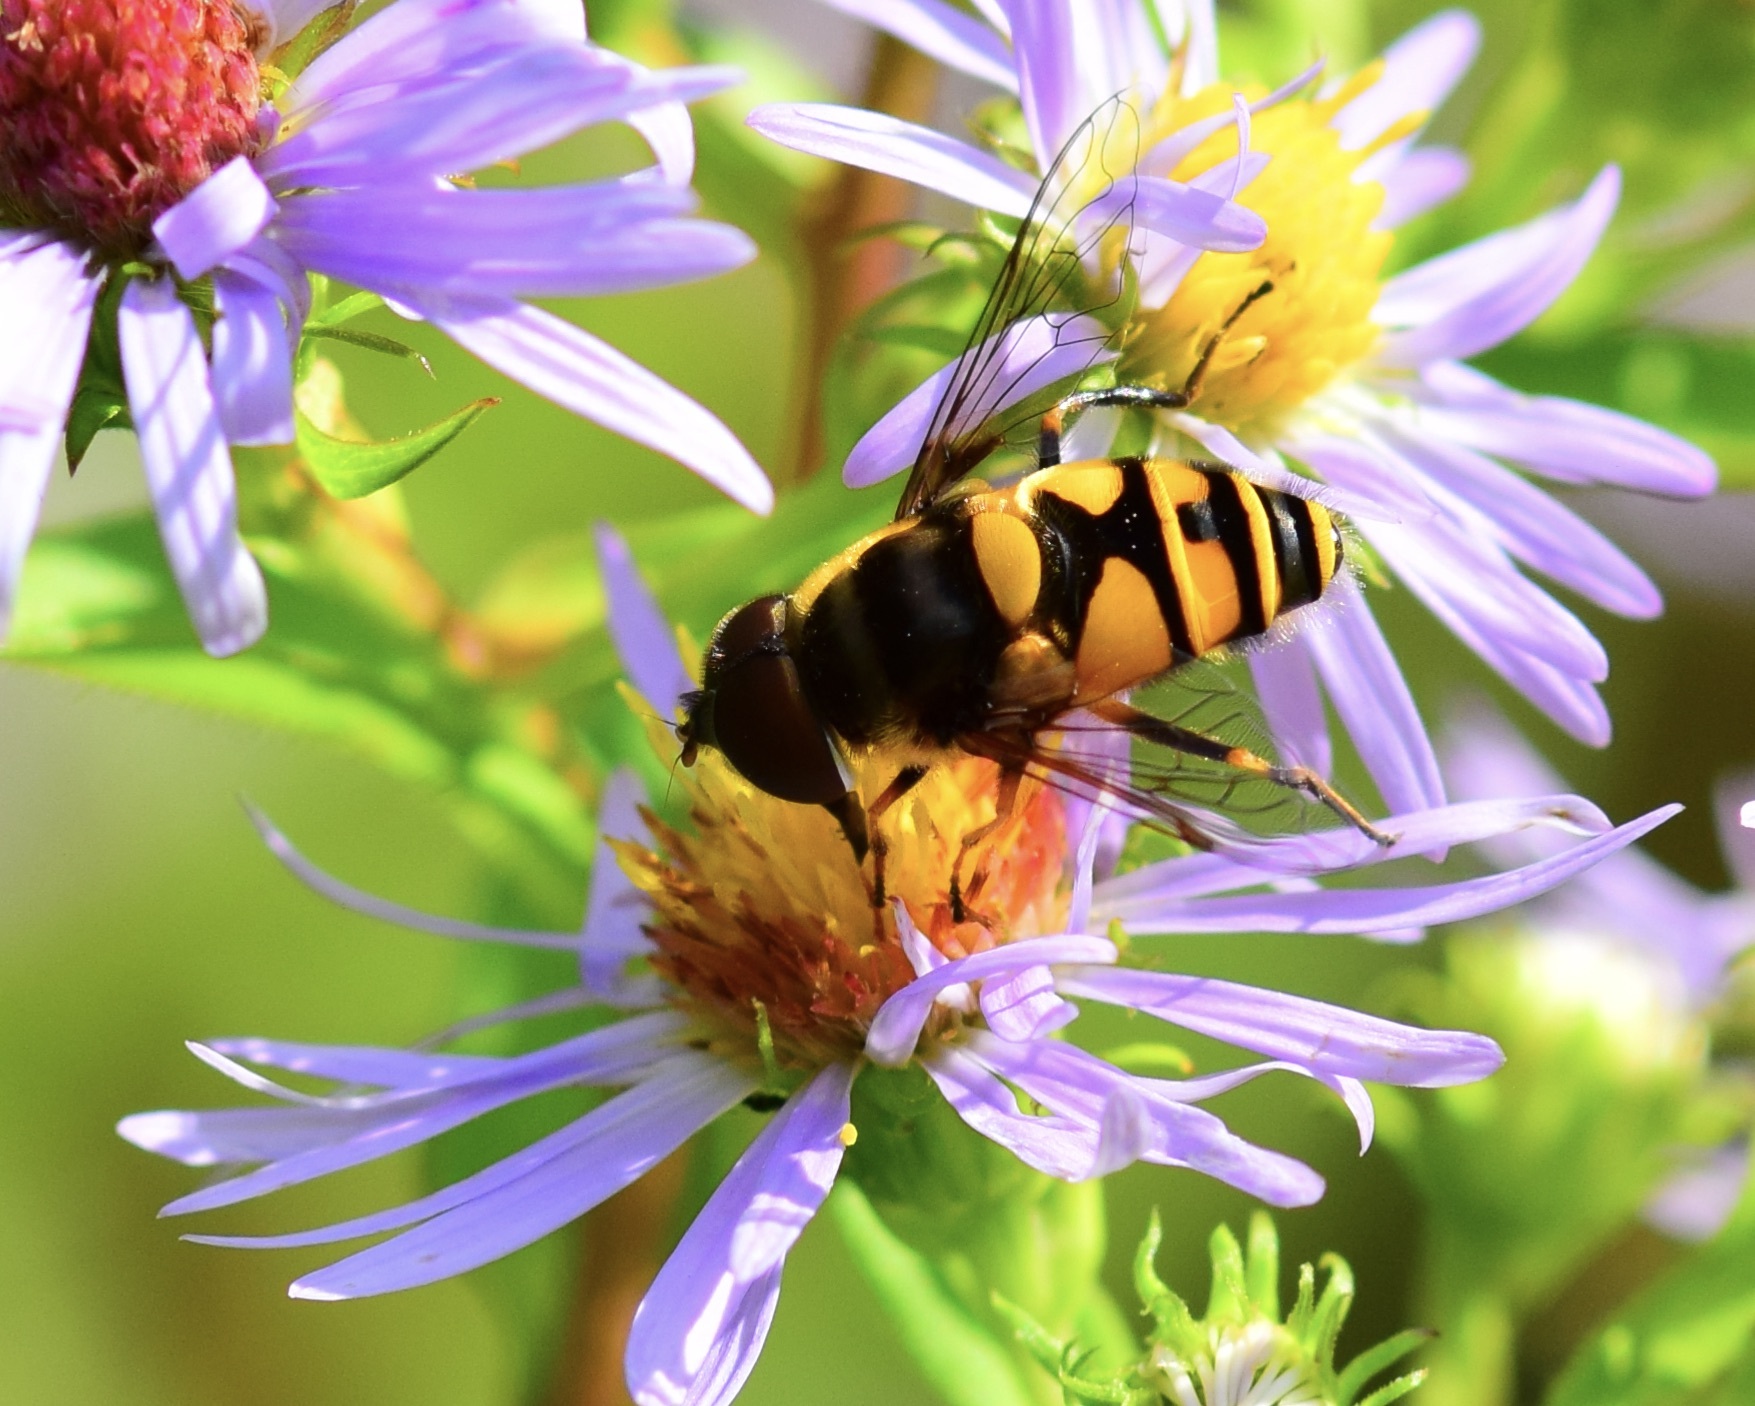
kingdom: Animalia
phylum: Arthropoda
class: Insecta
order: Diptera
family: Syrphidae
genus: Eristalis
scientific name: Eristalis transversa
